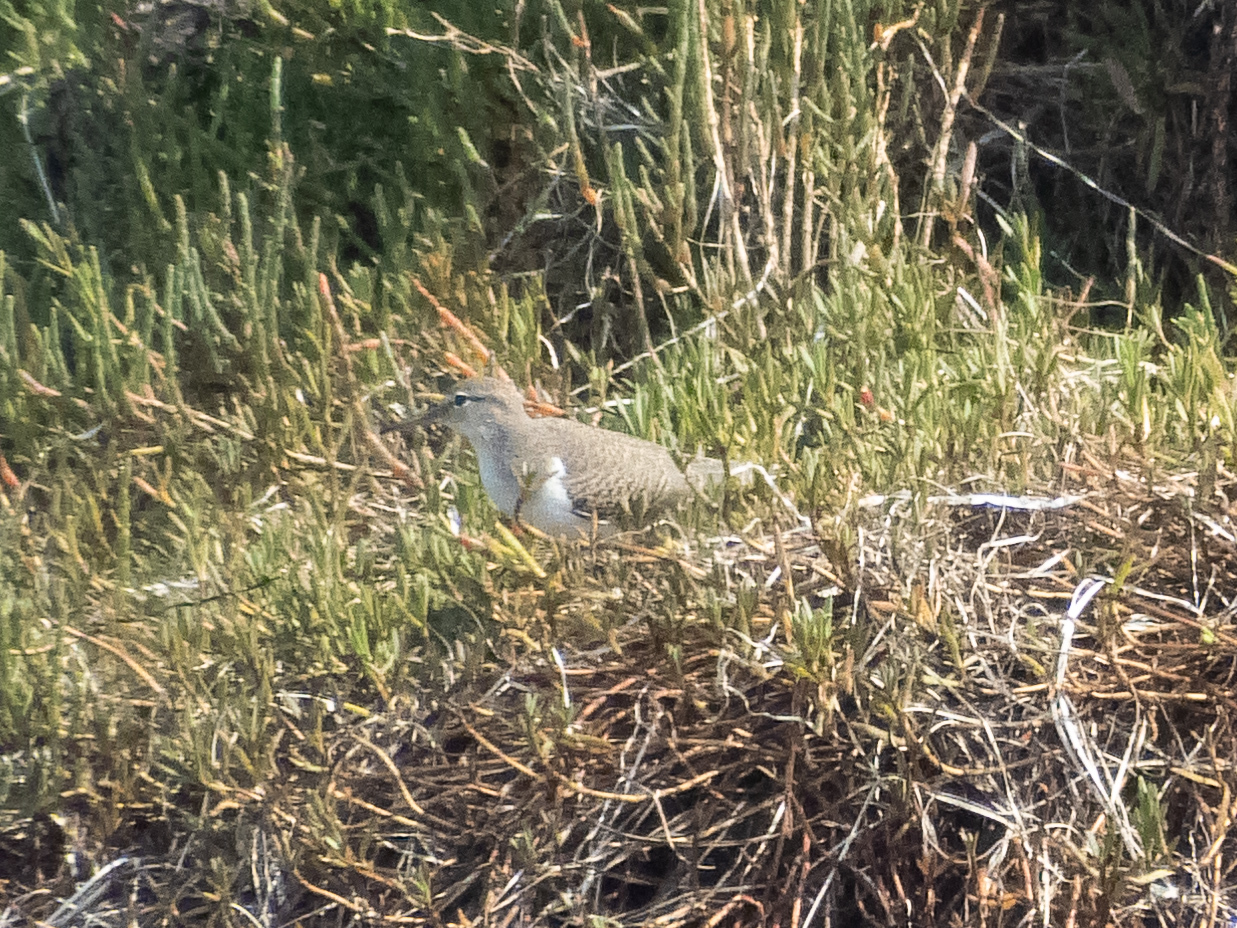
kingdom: Animalia
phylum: Chordata
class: Aves
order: Charadriiformes
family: Scolopacidae
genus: Actitis
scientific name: Actitis macularius
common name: Spotted sandpiper
